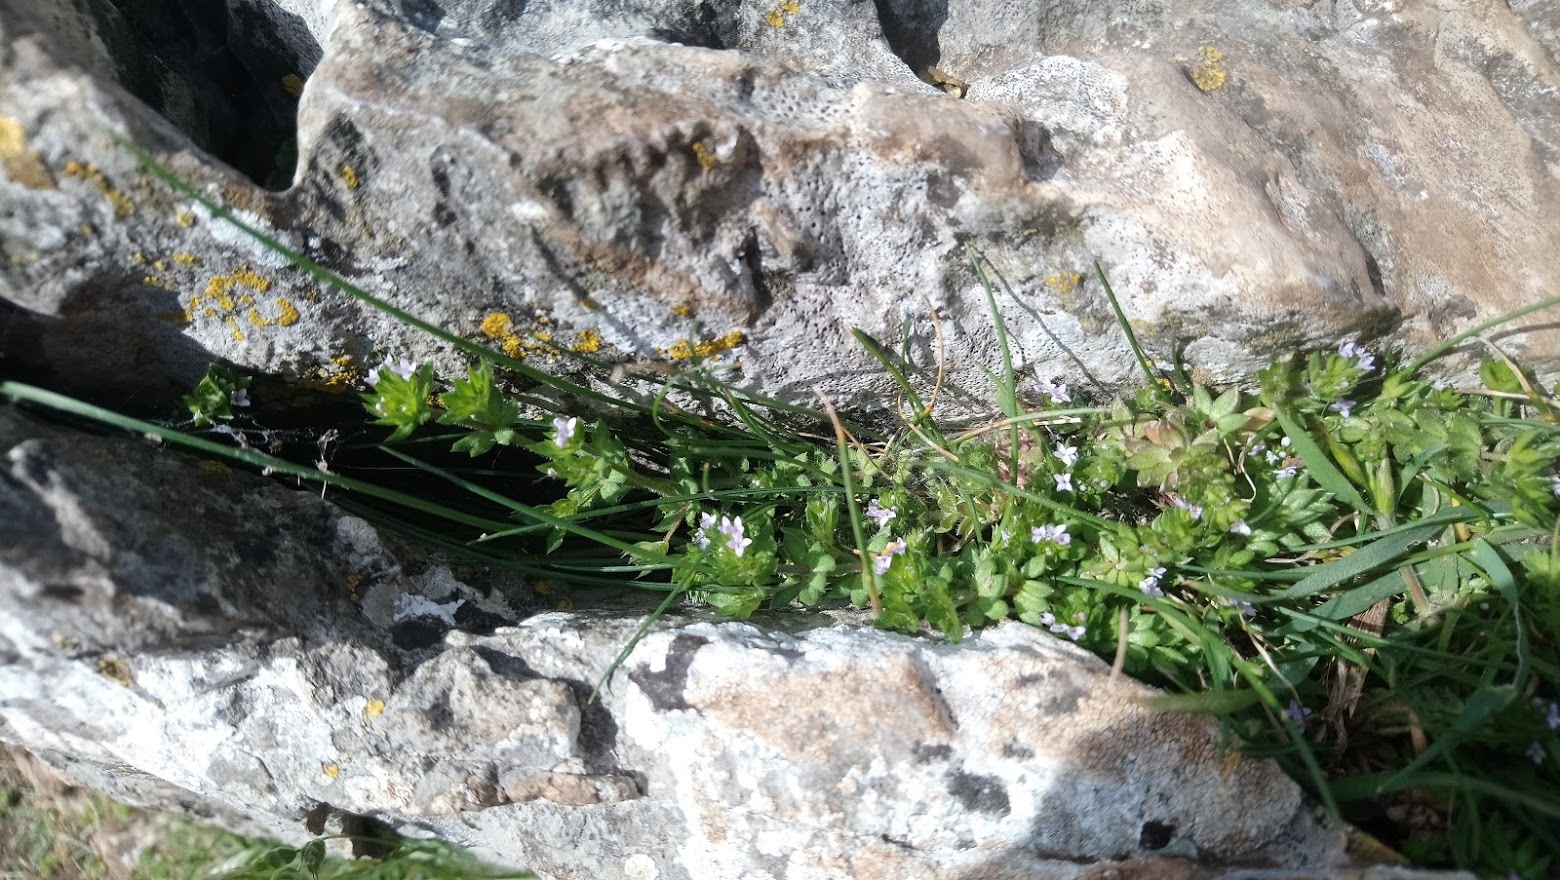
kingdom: Plantae
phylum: Tracheophyta
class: Magnoliopsida
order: Gentianales
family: Rubiaceae
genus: Sherardia
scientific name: Sherardia arvensis
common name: Field madder
